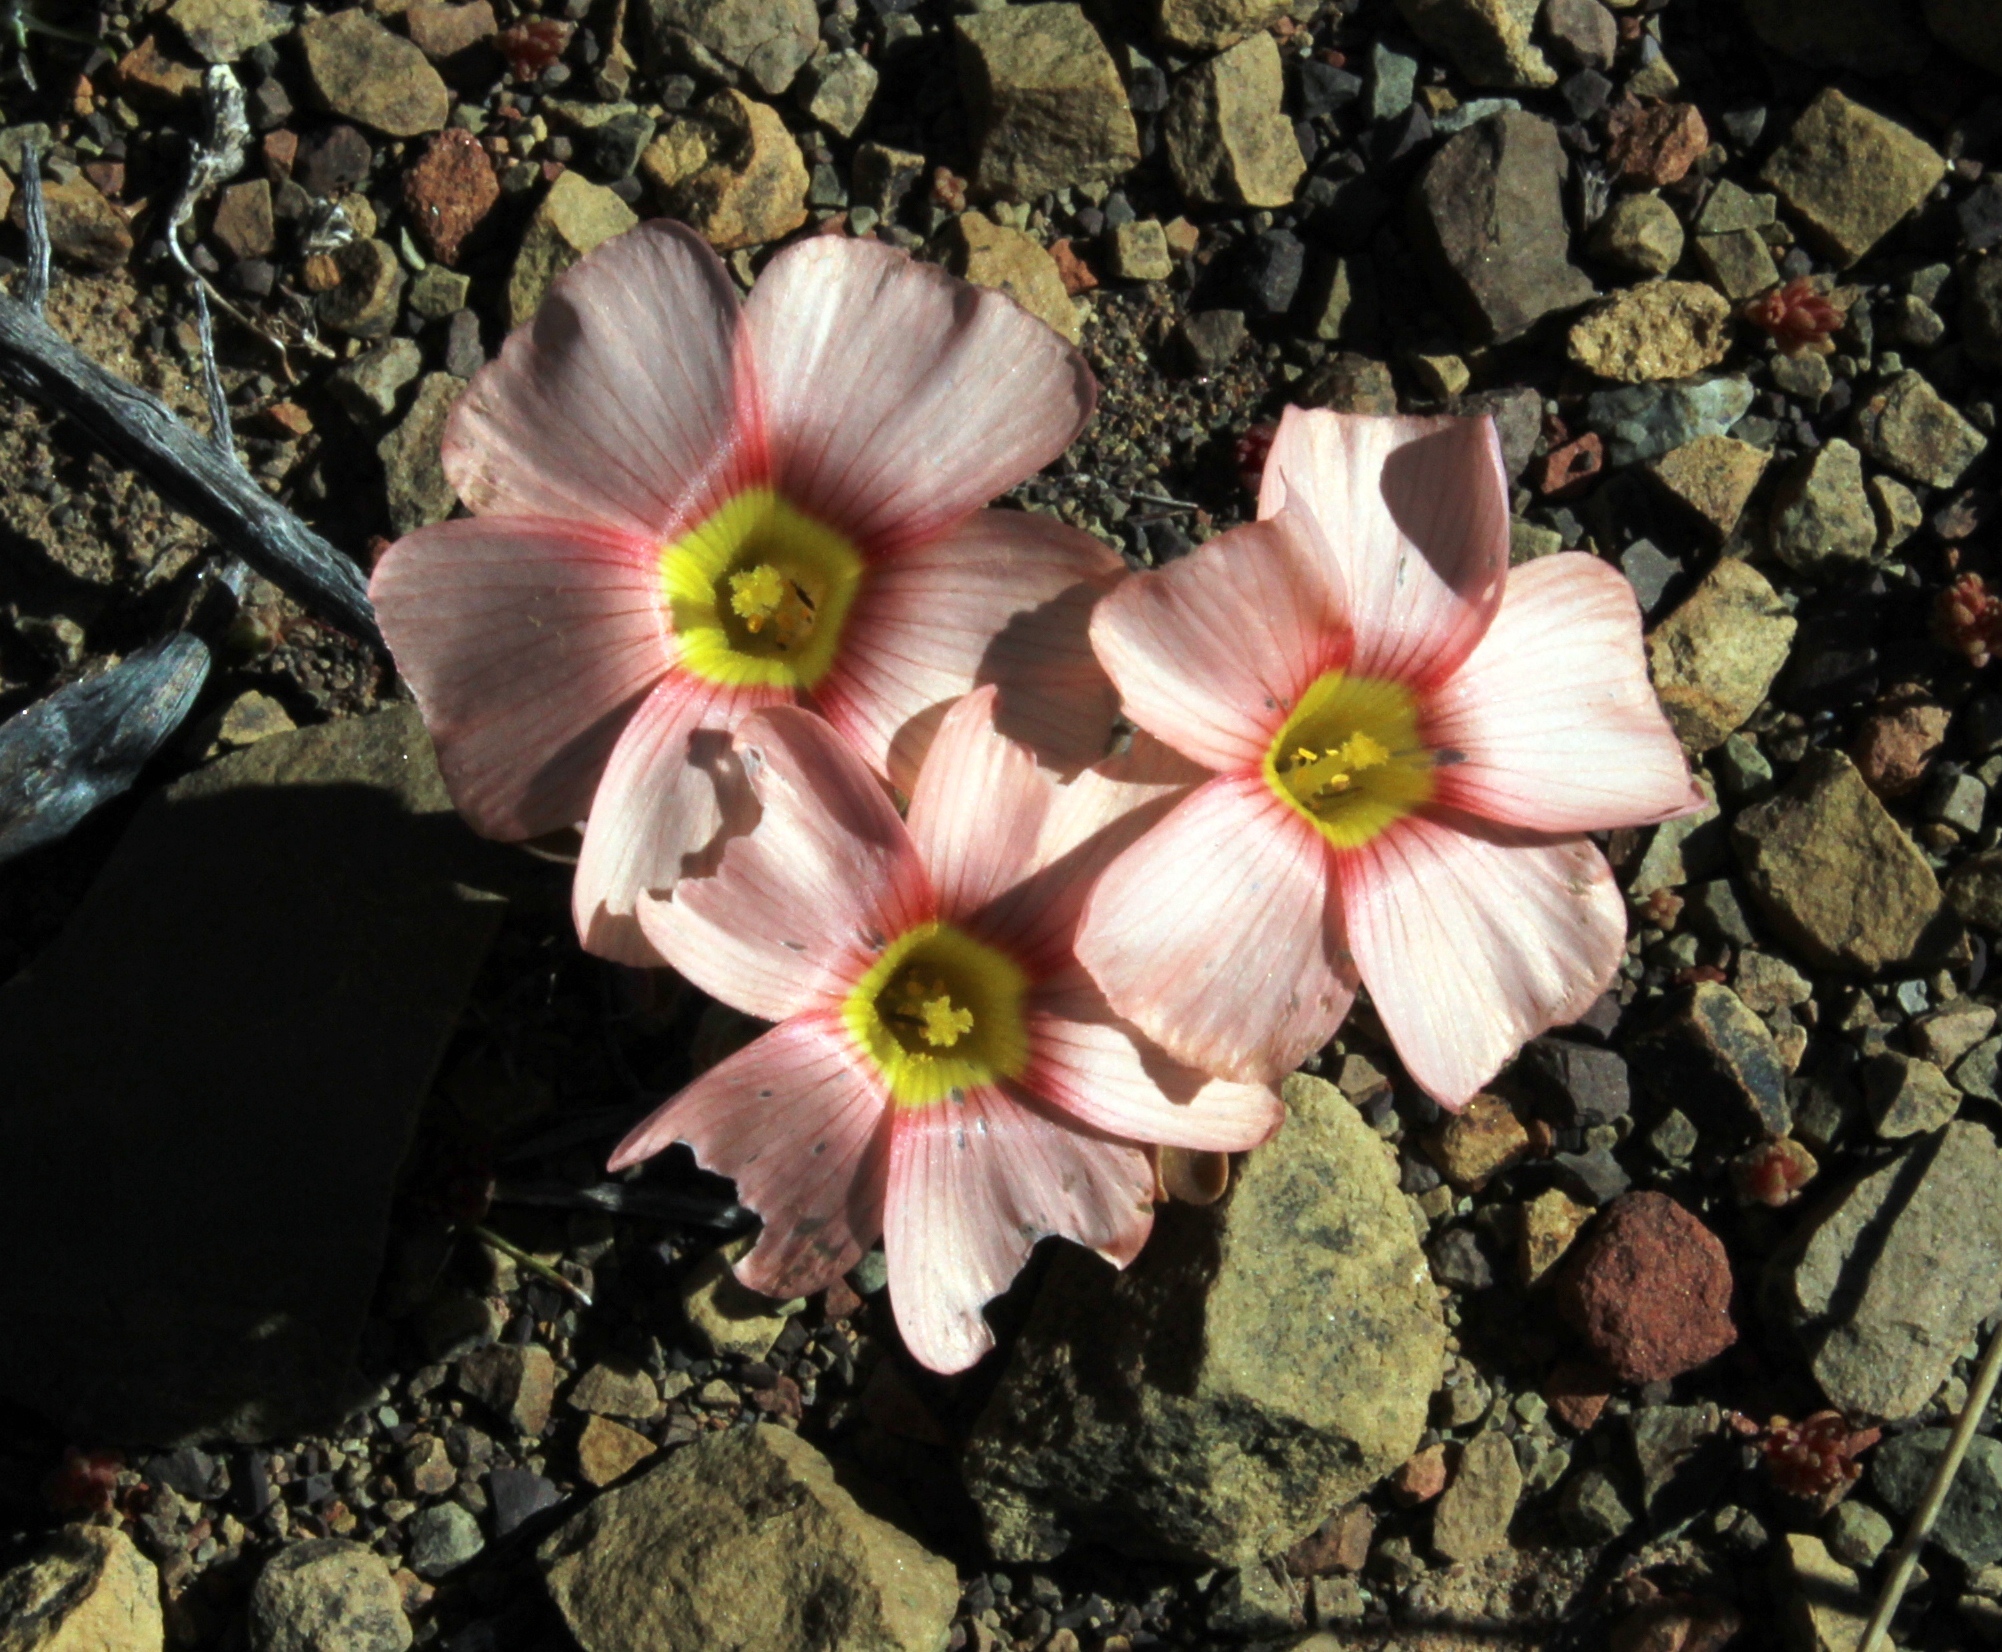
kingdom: Plantae
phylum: Tracheophyta
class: Magnoliopsida
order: Oxalidales
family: Oxalidaceae
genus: Oxalis
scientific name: Oxalis obtusa
